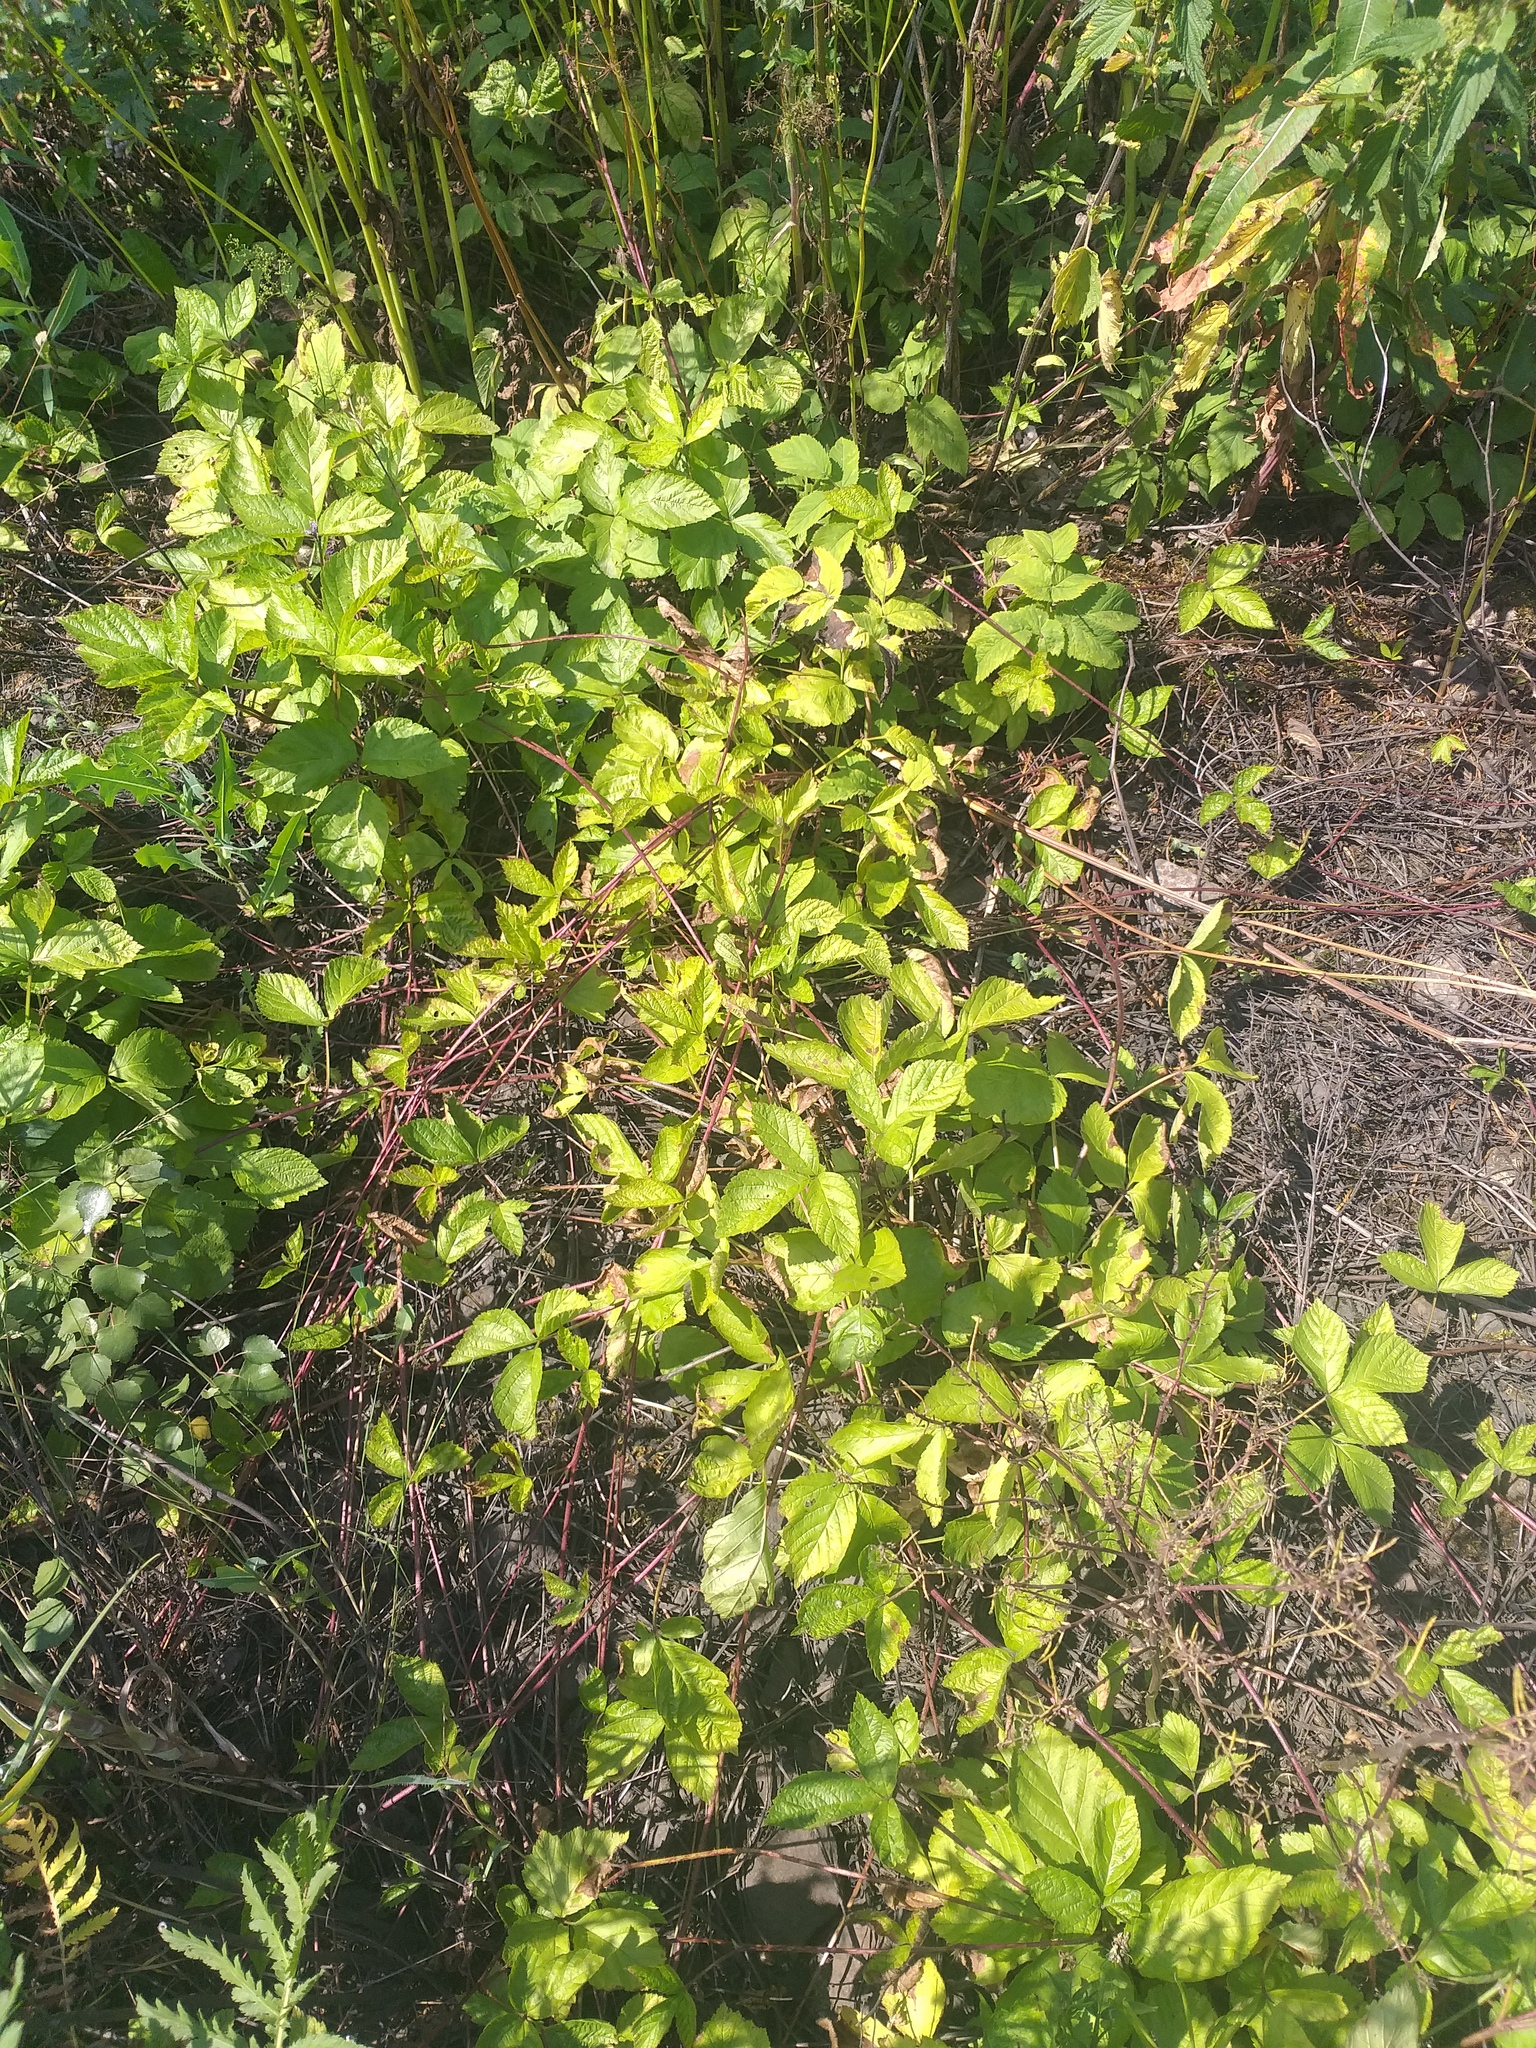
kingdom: Plantae
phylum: Tracheophyta
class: Magnoliopsida
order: Rosales
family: Rosaceae
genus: Rubus
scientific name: Rubus saxatilis
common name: Stone bramble
